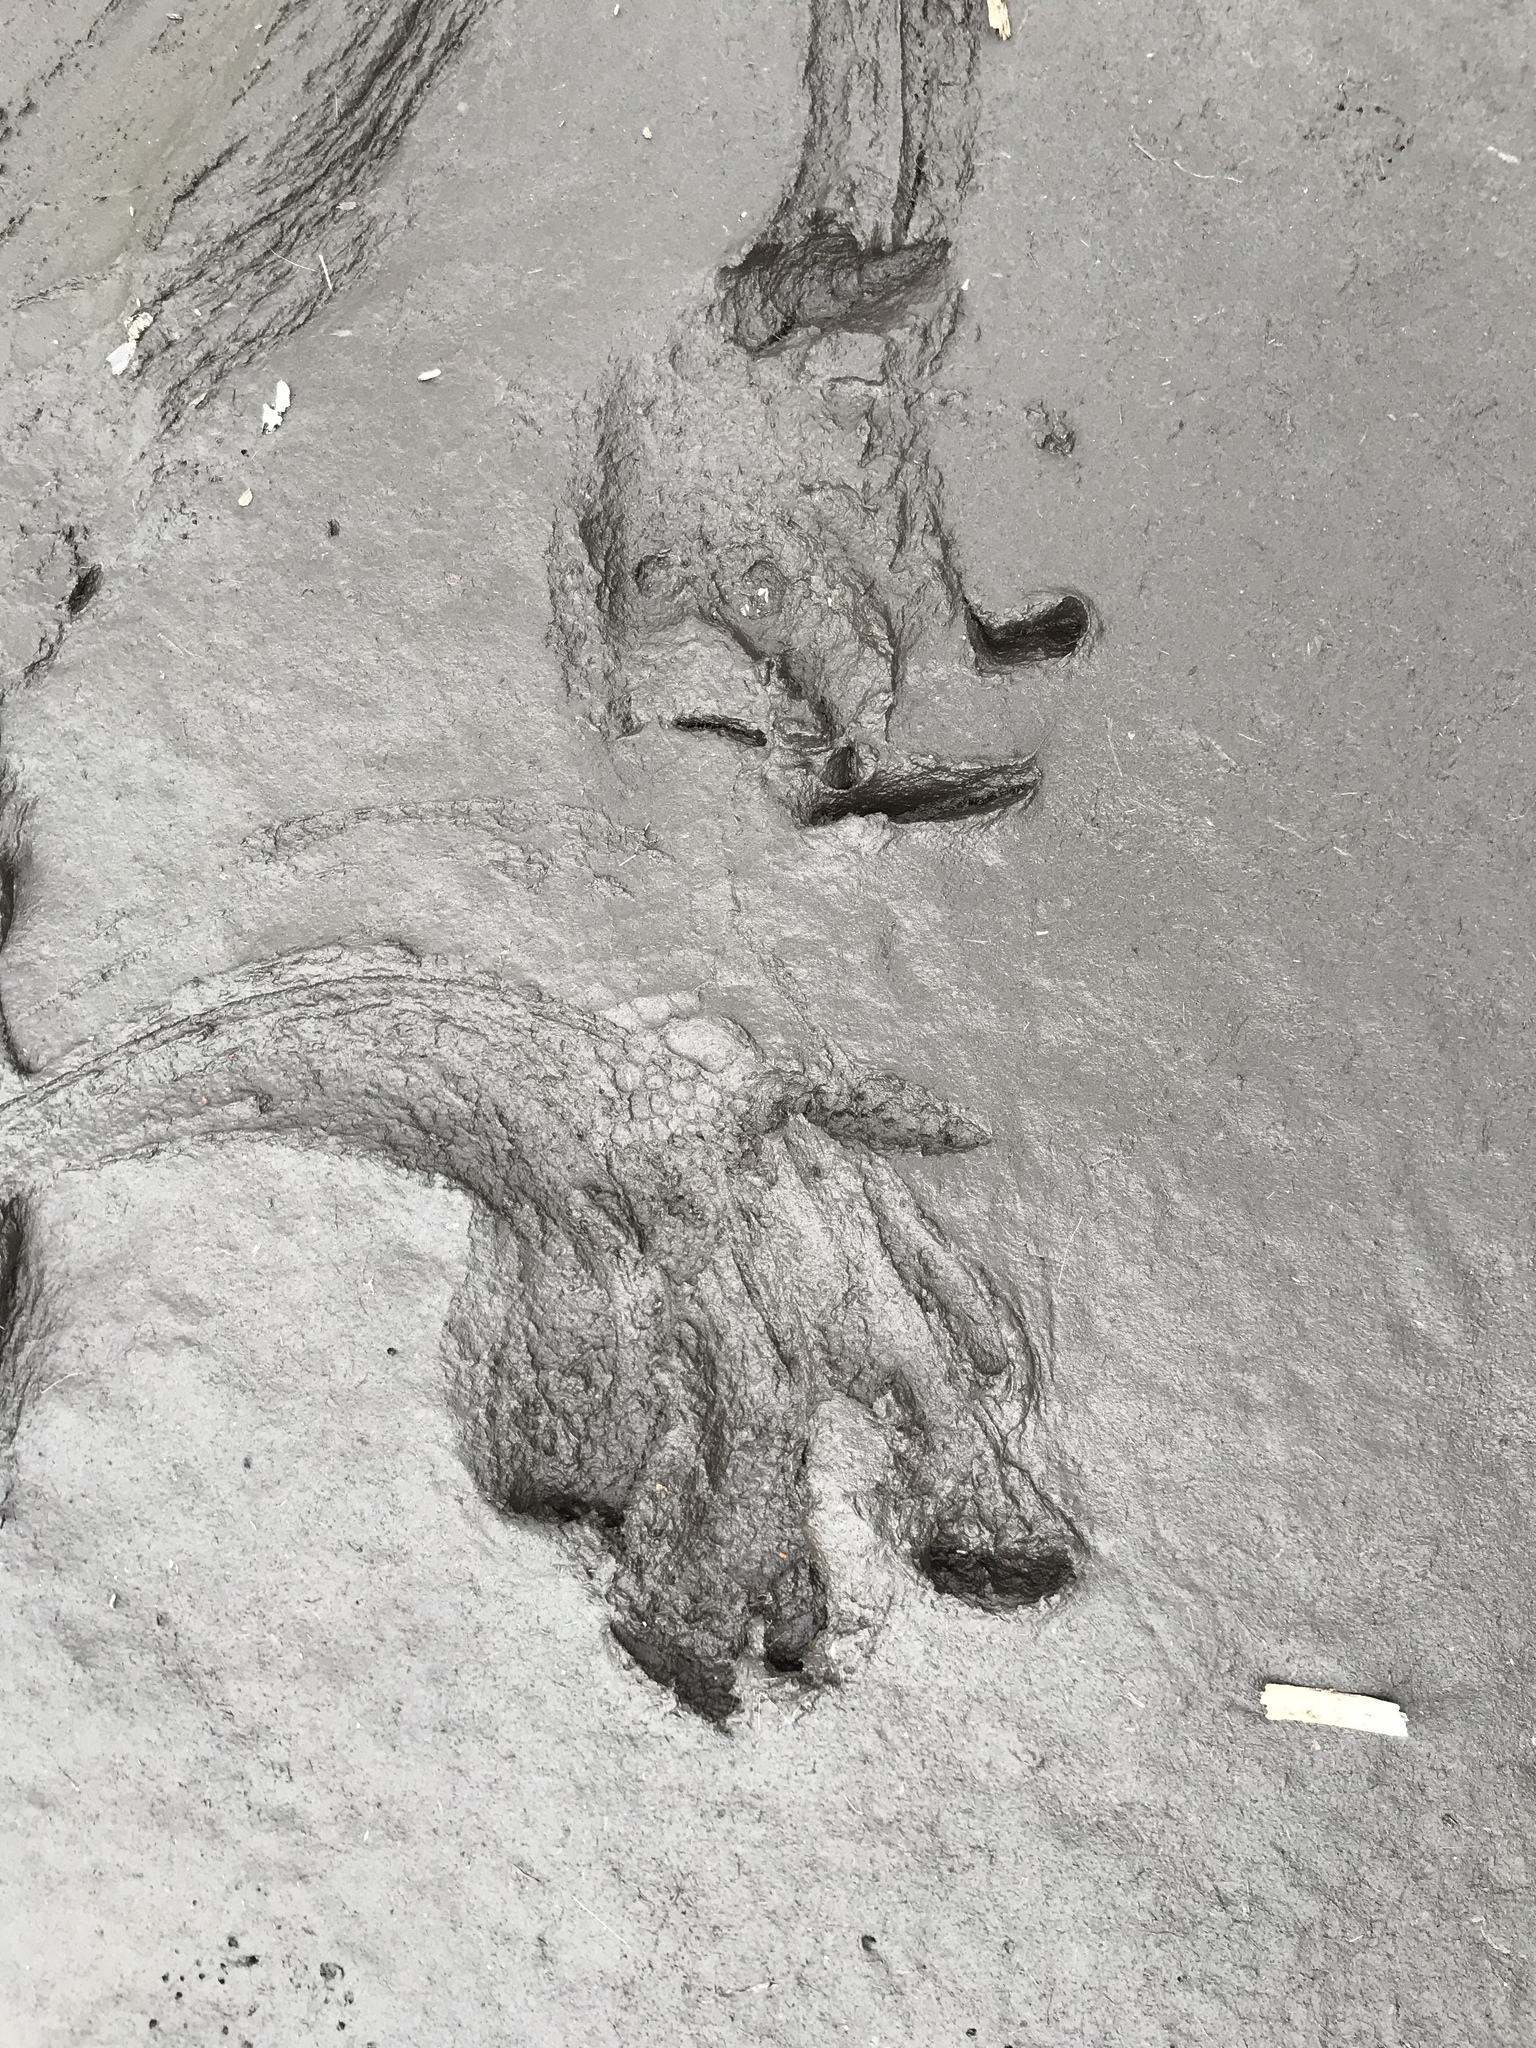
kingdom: Animalia
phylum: Chordata
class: Crocodylia
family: Alligatoridae
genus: Alligator
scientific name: Alligator mississippiensis
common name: American alligator
